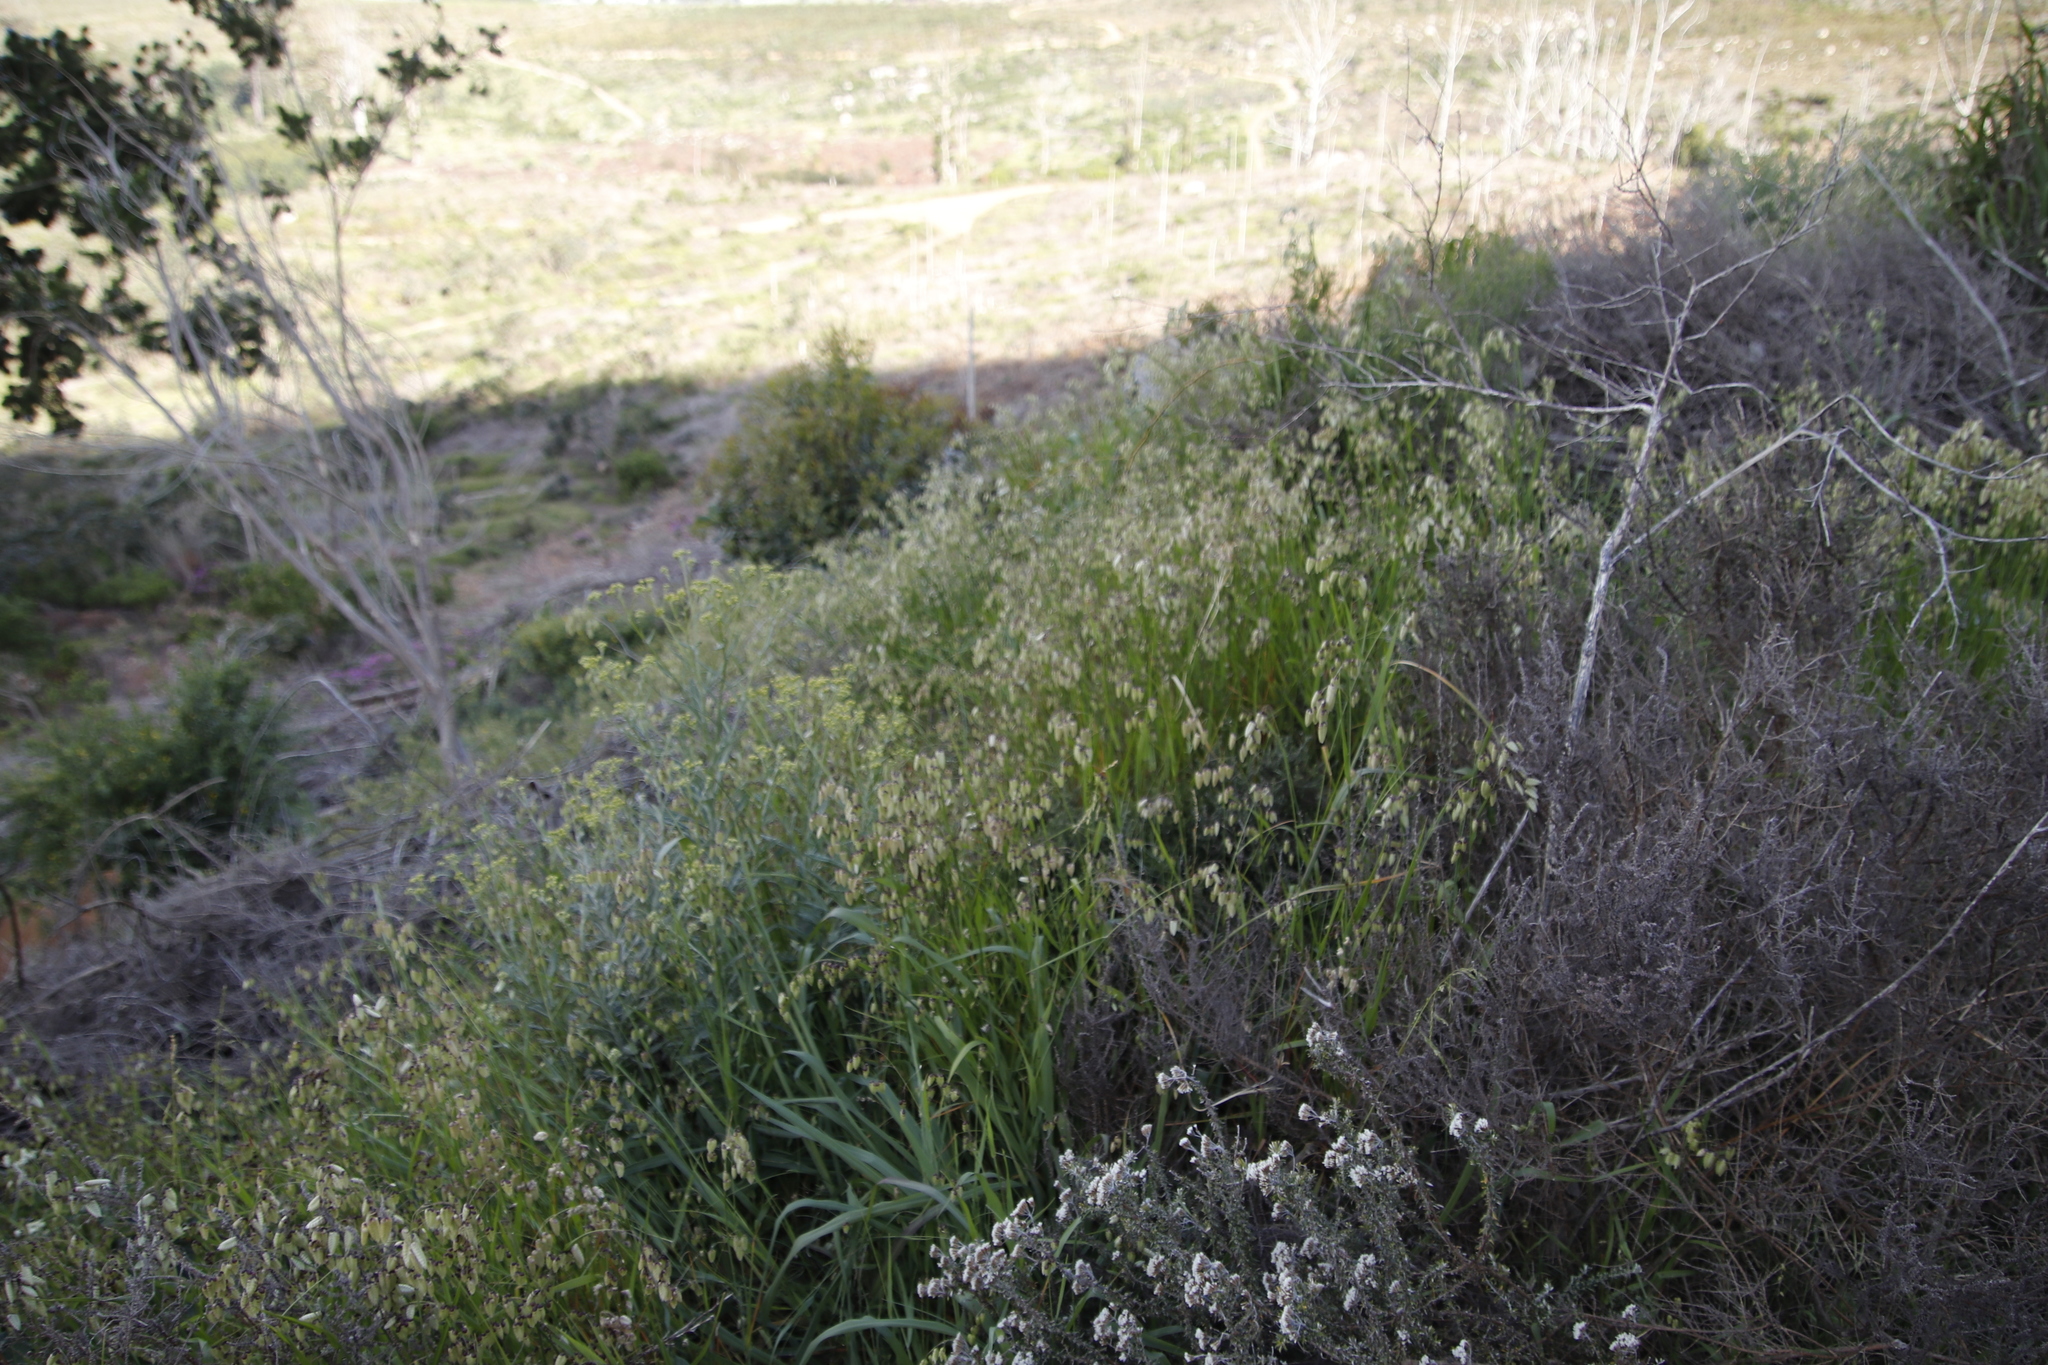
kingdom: Plantae
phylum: Tracheophyta
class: Liliopsida
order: Poales
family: Poaceae
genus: Briza
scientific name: Briza maxima
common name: Big quakinggrass
